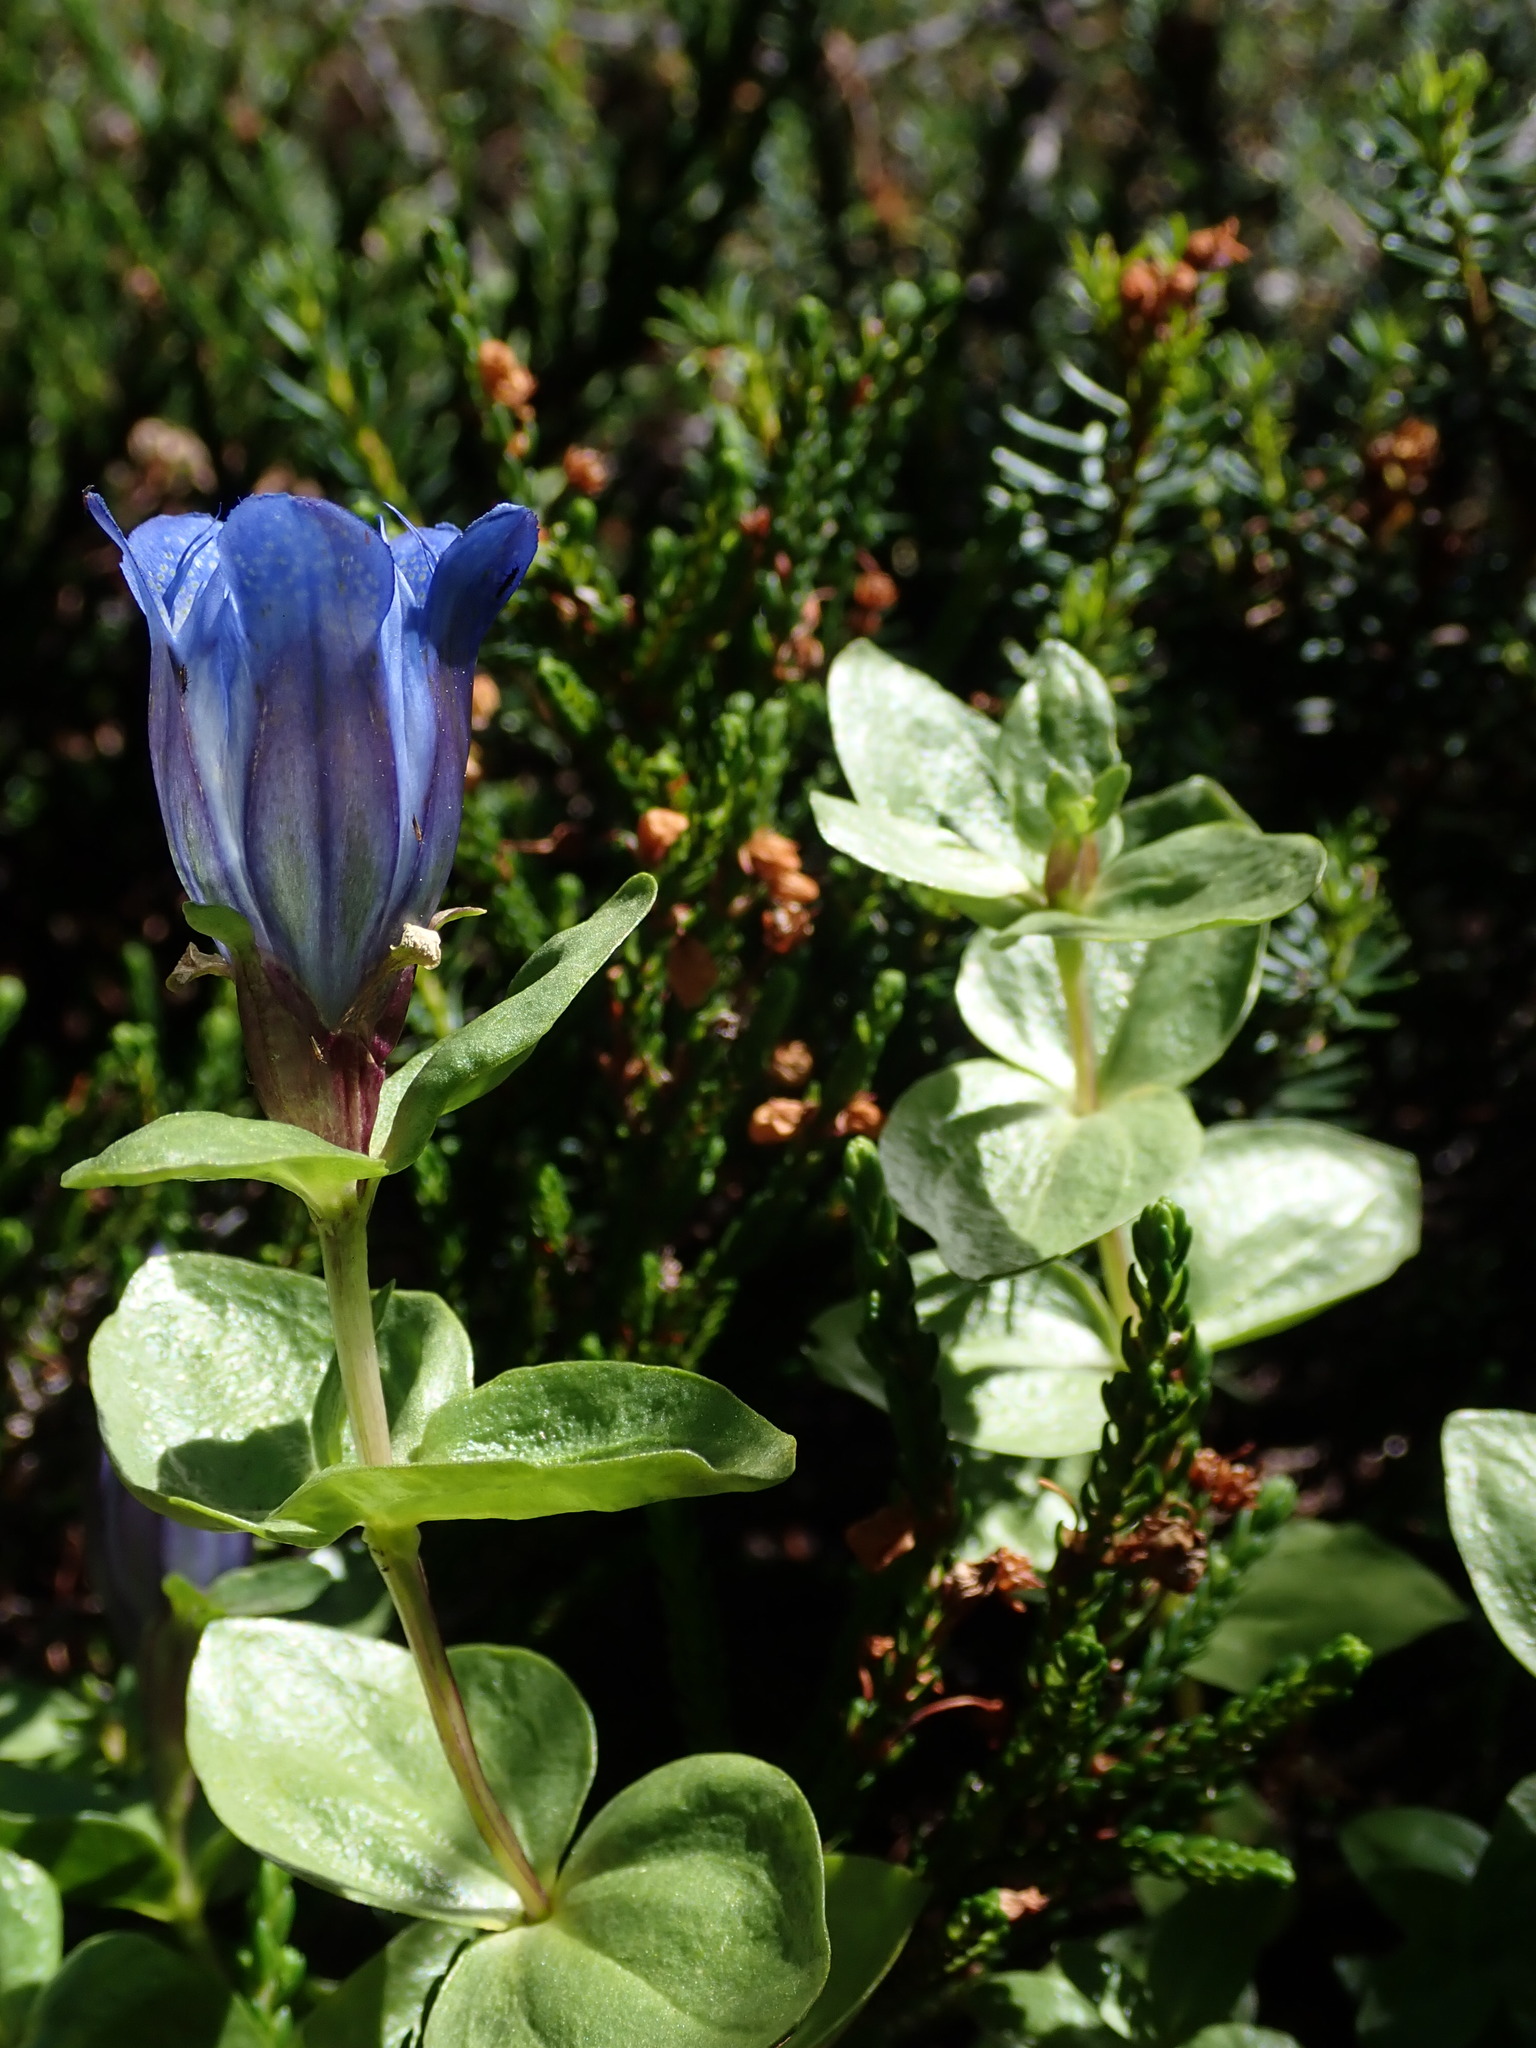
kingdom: Plantae
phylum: Tracheophyta
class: Magnoliopsida
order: Gentianales
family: Gentianaceae
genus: Gentiana
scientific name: Gentiana calycosa
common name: Rainier pleated gentian
